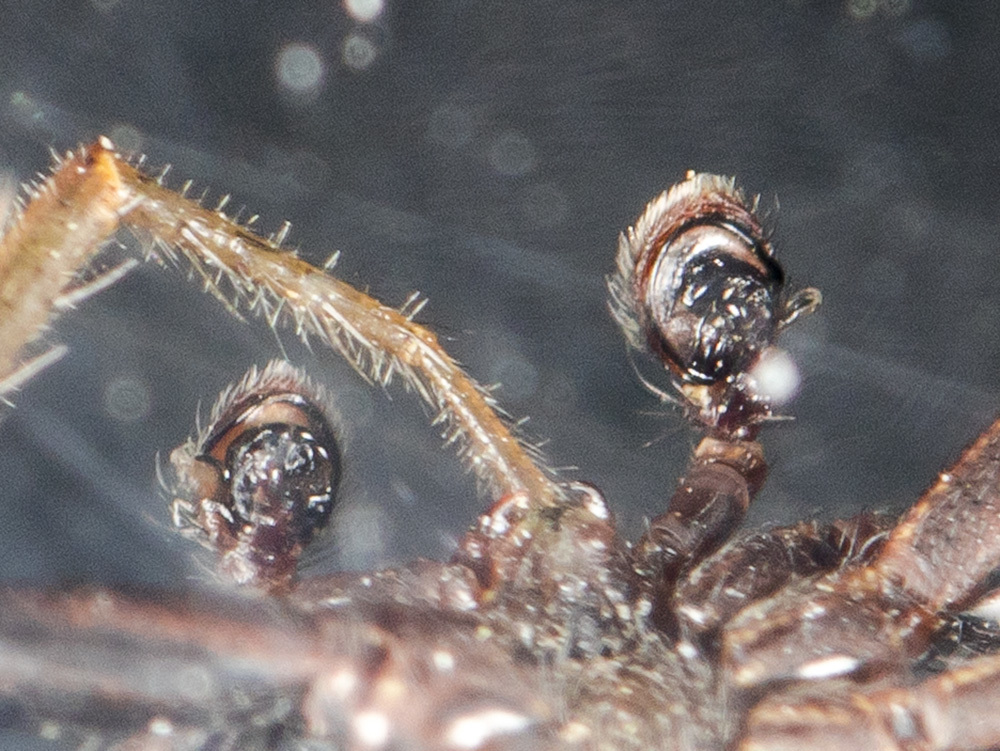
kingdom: Animalia
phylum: Arthropoda
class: Arachnida
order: Araneae
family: Thomisidae
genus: Xysticus
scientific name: Xysticus pseudocristatus
